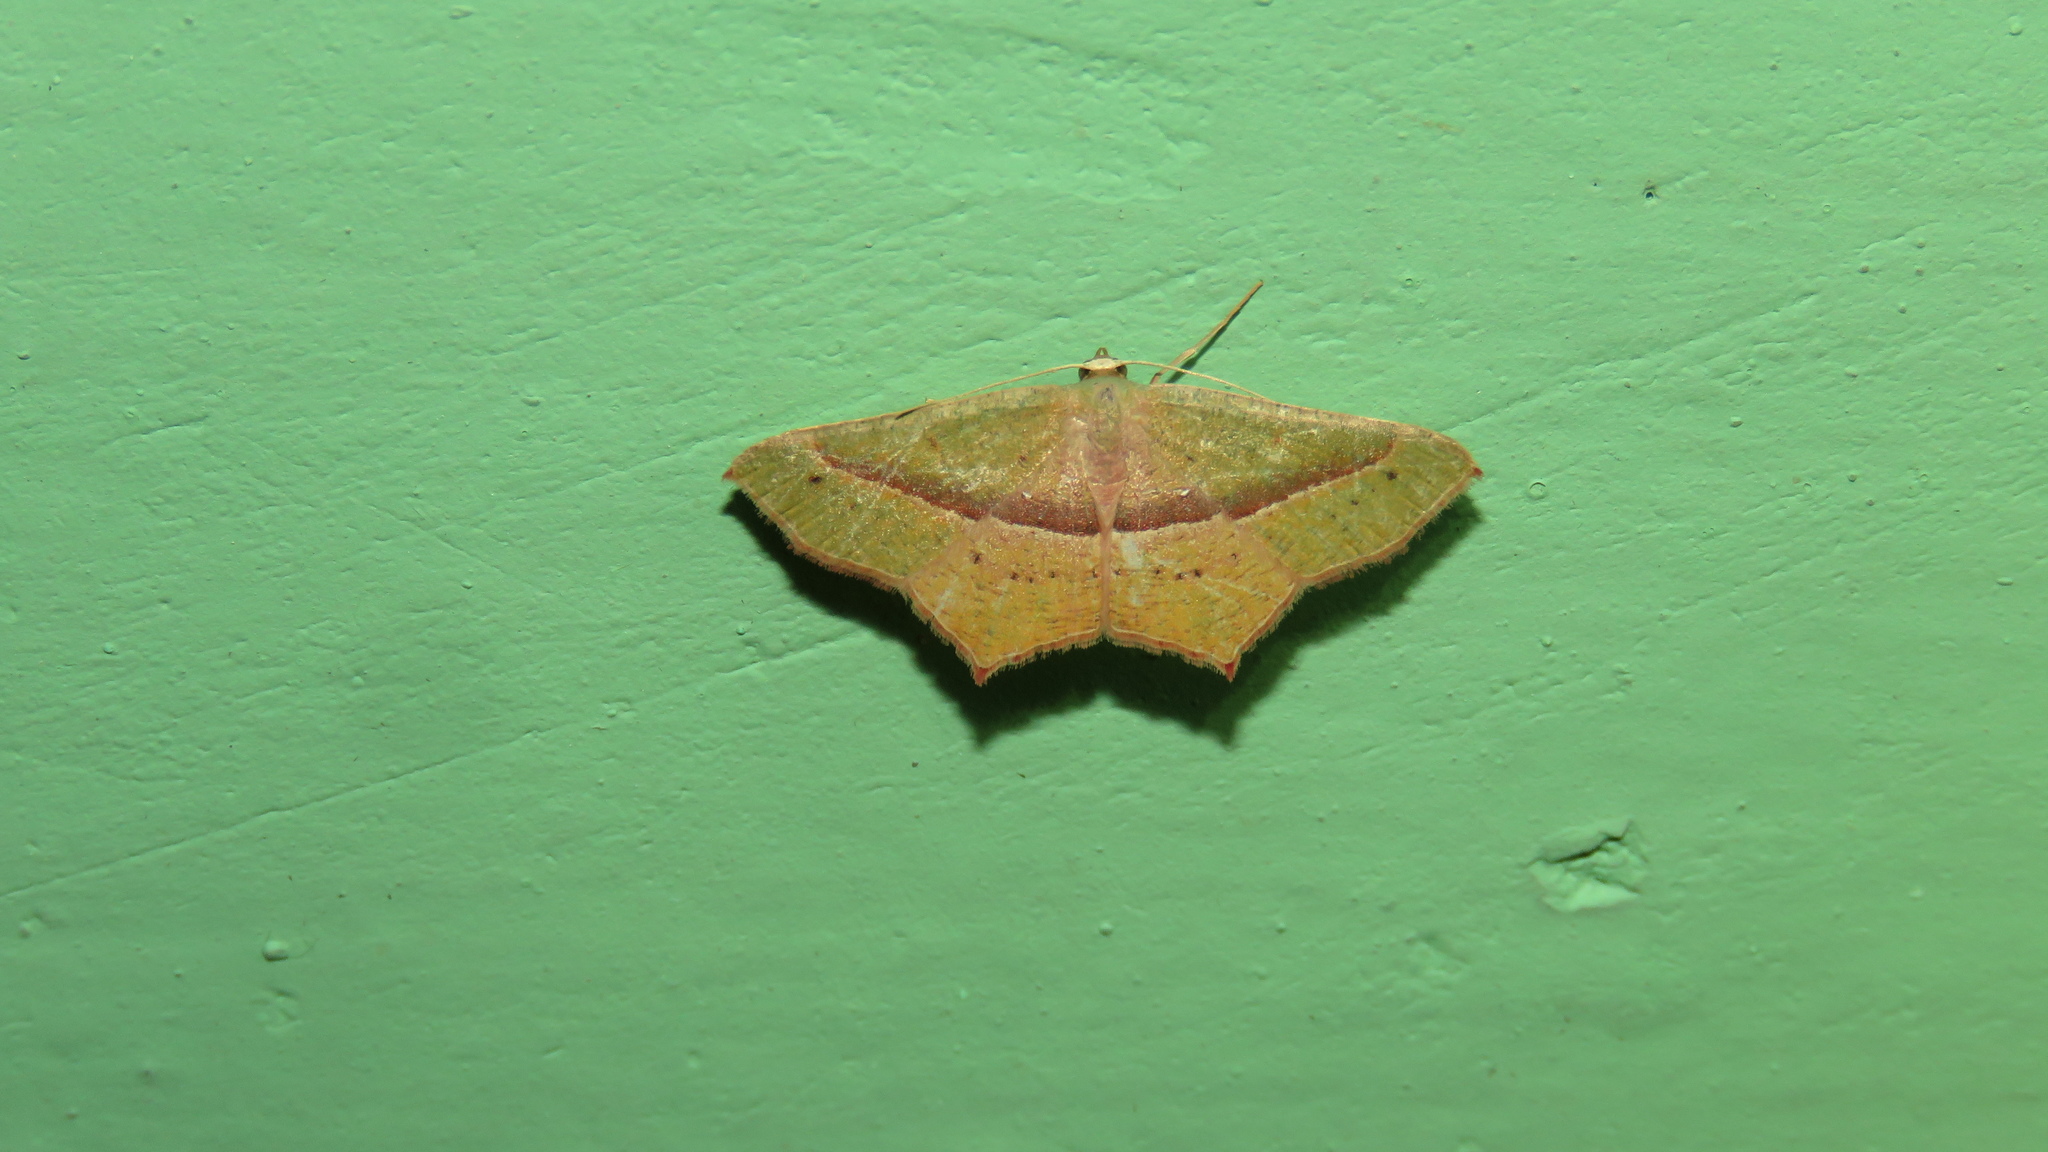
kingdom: Animalia
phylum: Arthropoda
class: Insecta
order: Lepidoptera
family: Geometridae
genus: Traminda
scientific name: Traminda mundissima
